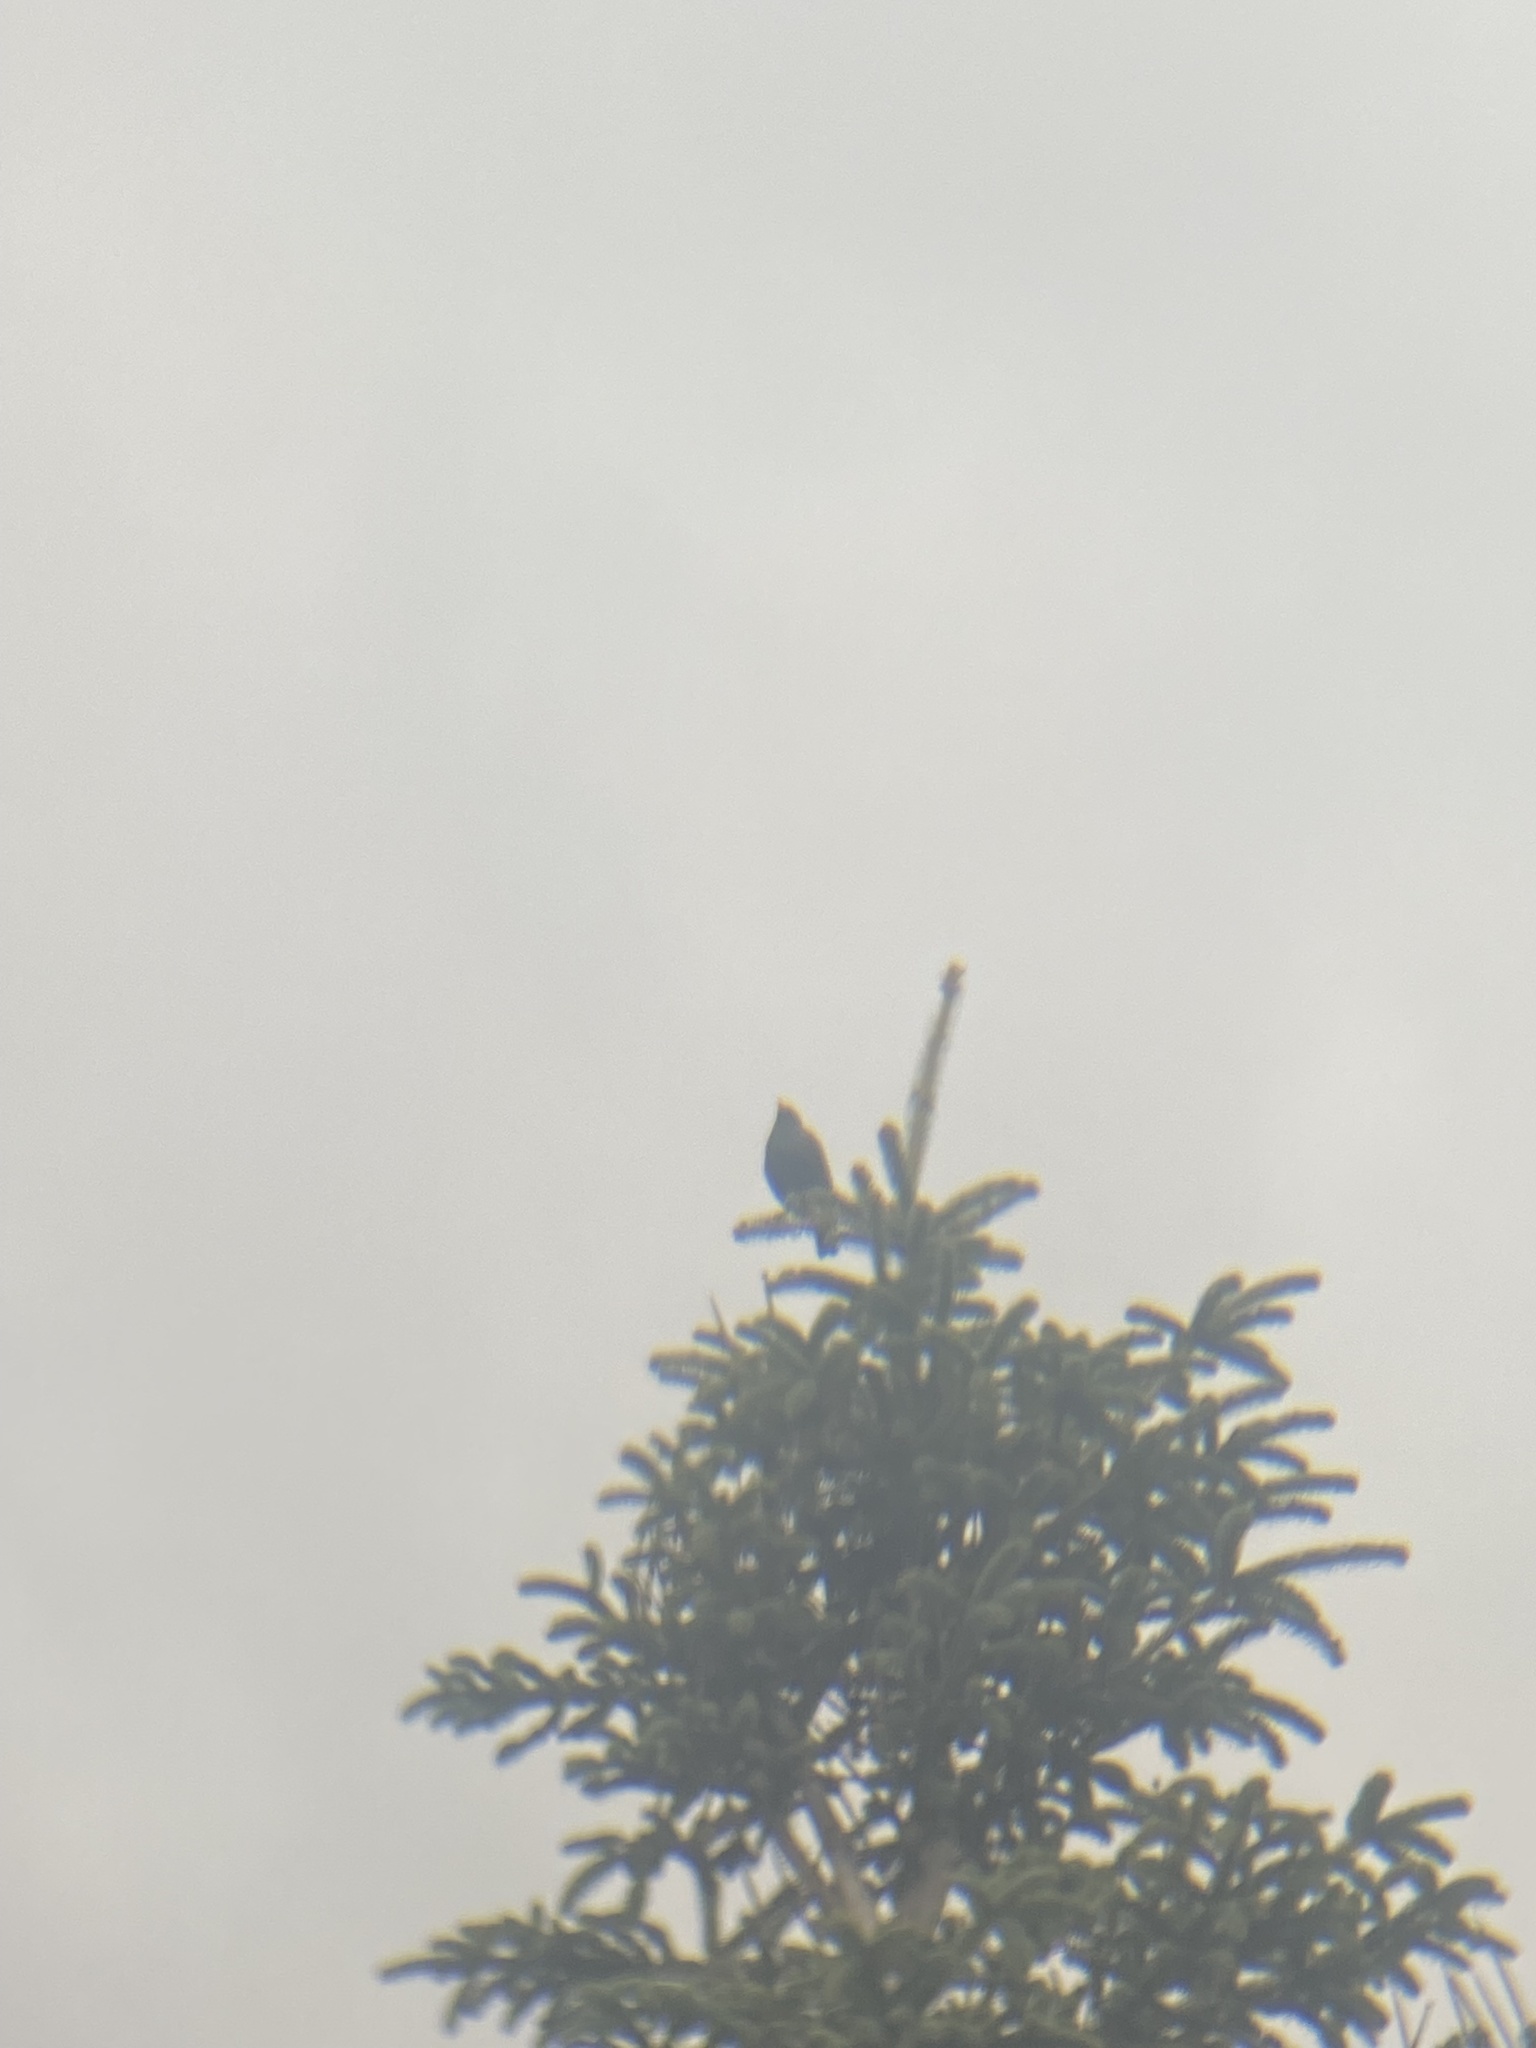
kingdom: Animalia
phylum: Chordata
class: Aves
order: Passeriformes
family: Sturnidae
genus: Sturnus
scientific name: Sturnus unicolor
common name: Spotless starling
